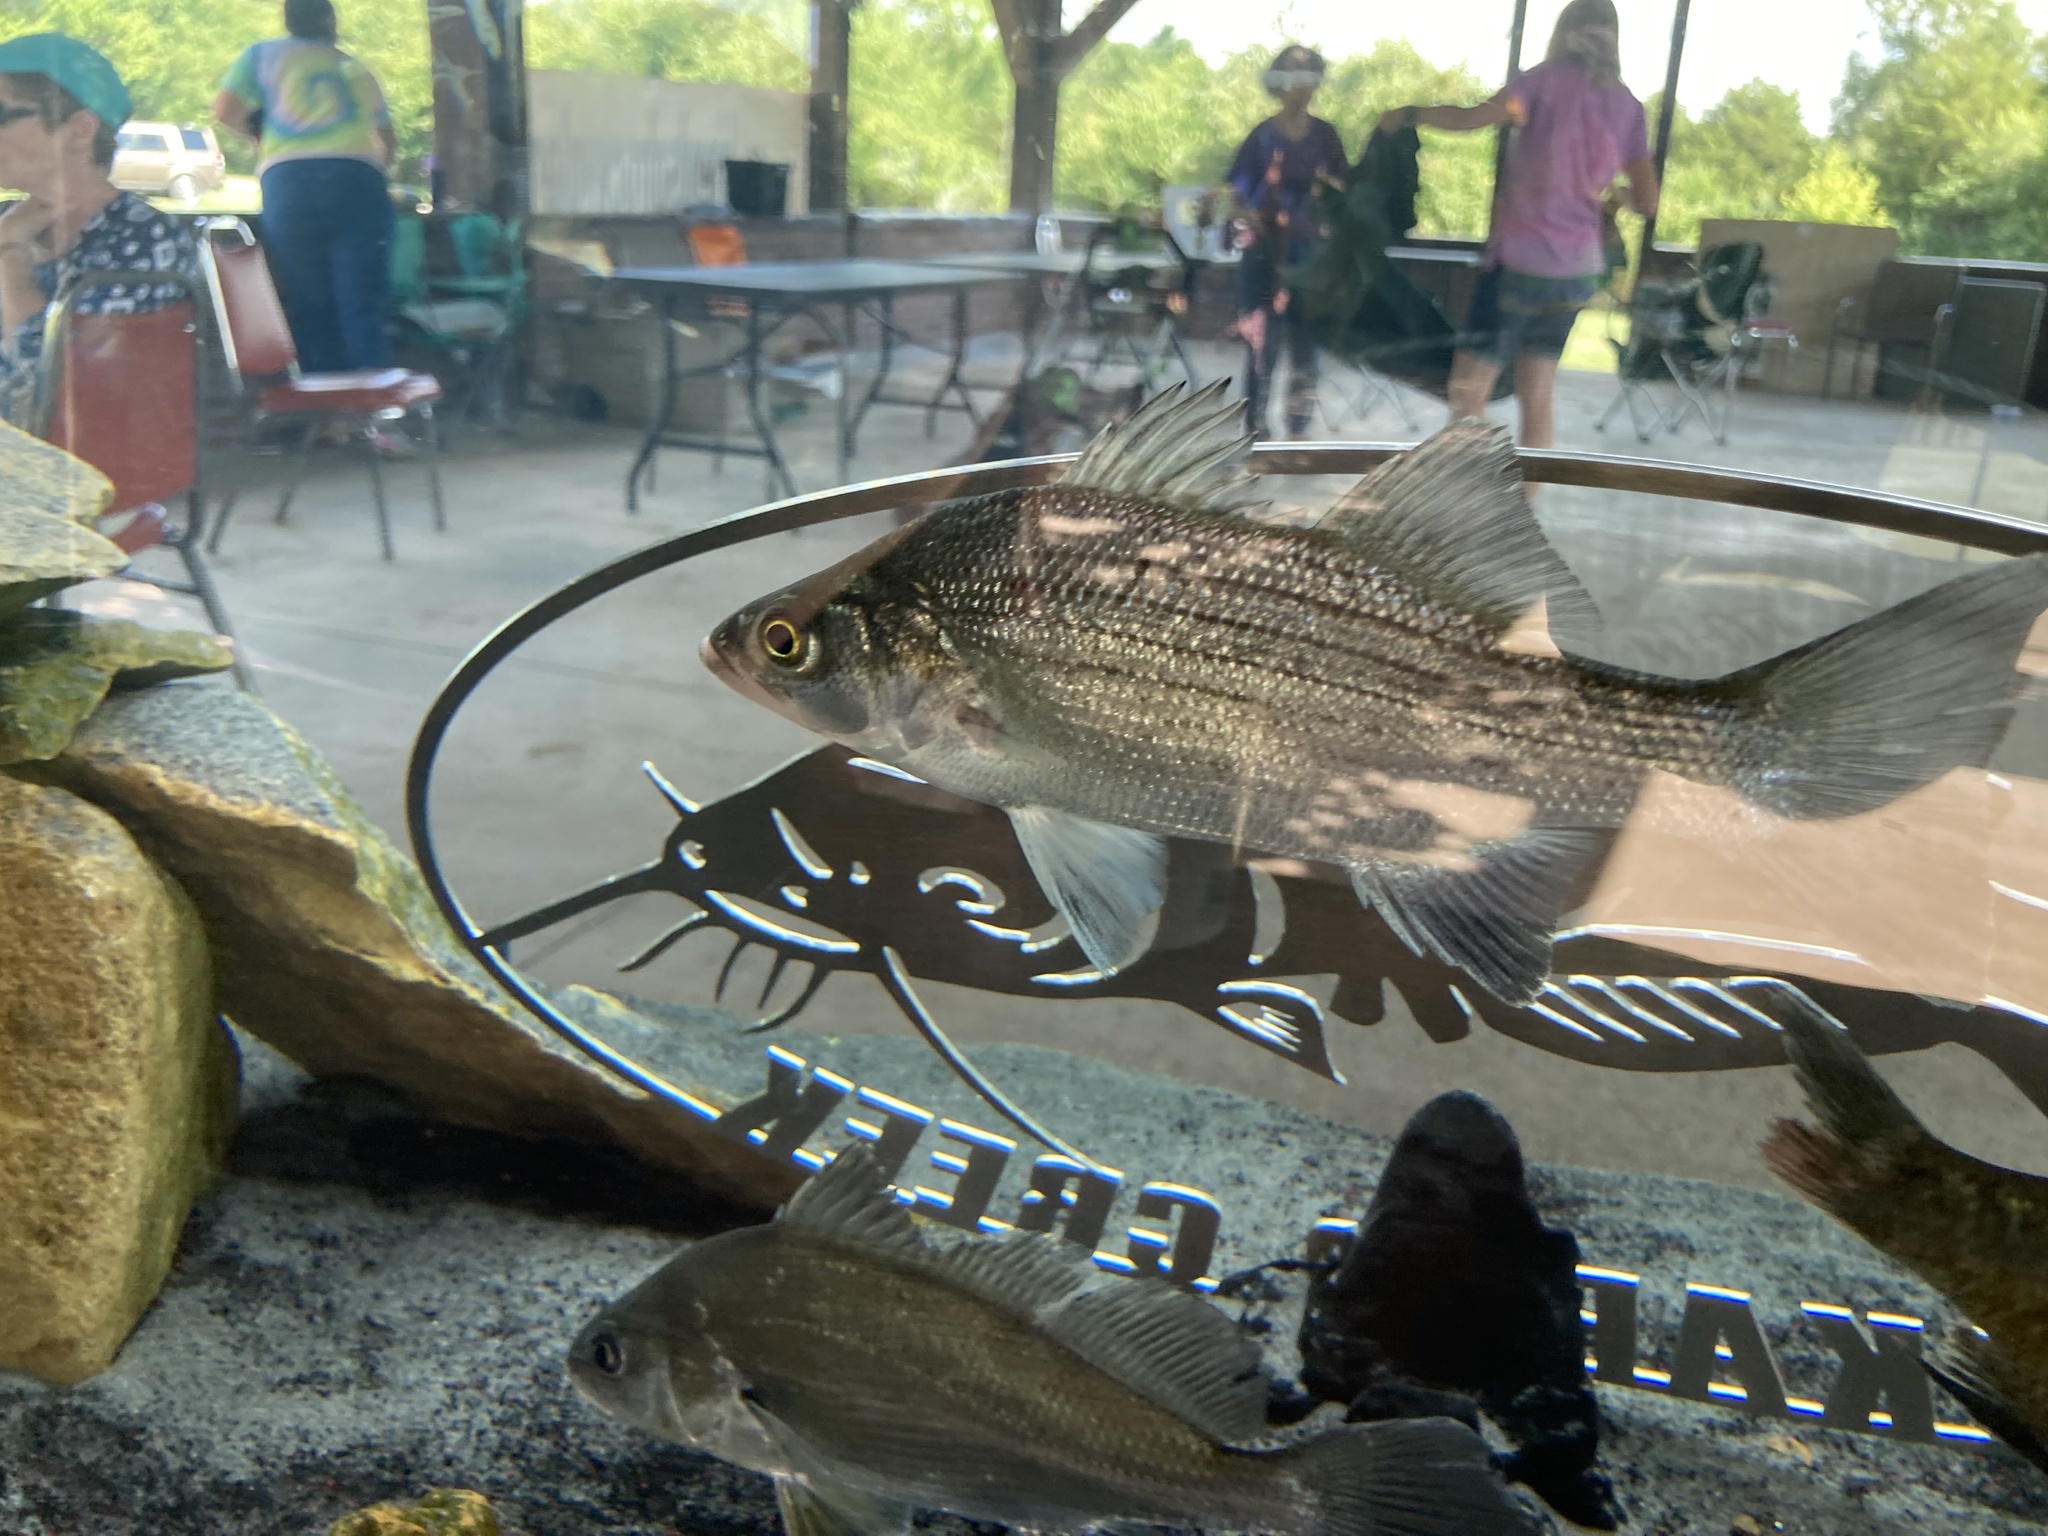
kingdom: Animalia
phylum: Chordata
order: Perciformes
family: Moronidae
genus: Morone
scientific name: Morone chrysops
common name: White bass
